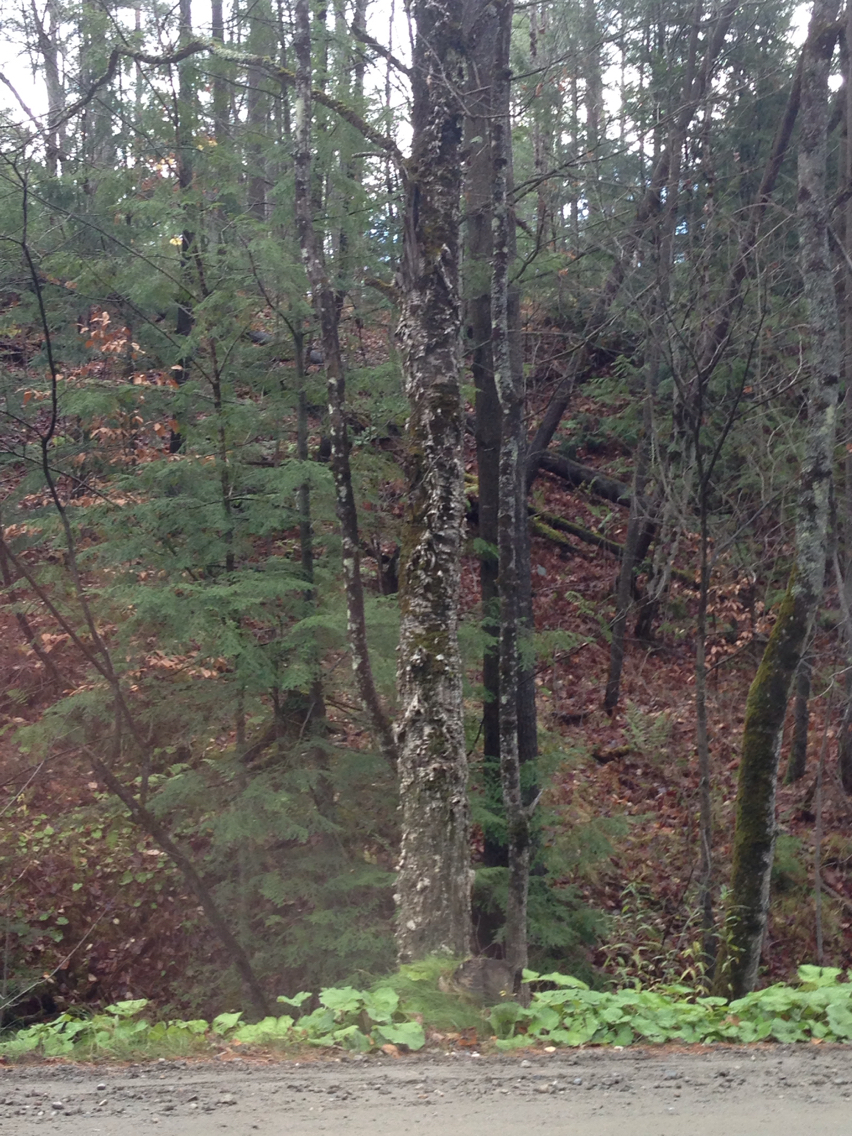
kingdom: Plantae
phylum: Tracheophyta
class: Magnoliopsida
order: Fagales
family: Betulaceae
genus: Betula
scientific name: Betula alleghaniensis
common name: Yellow birch
